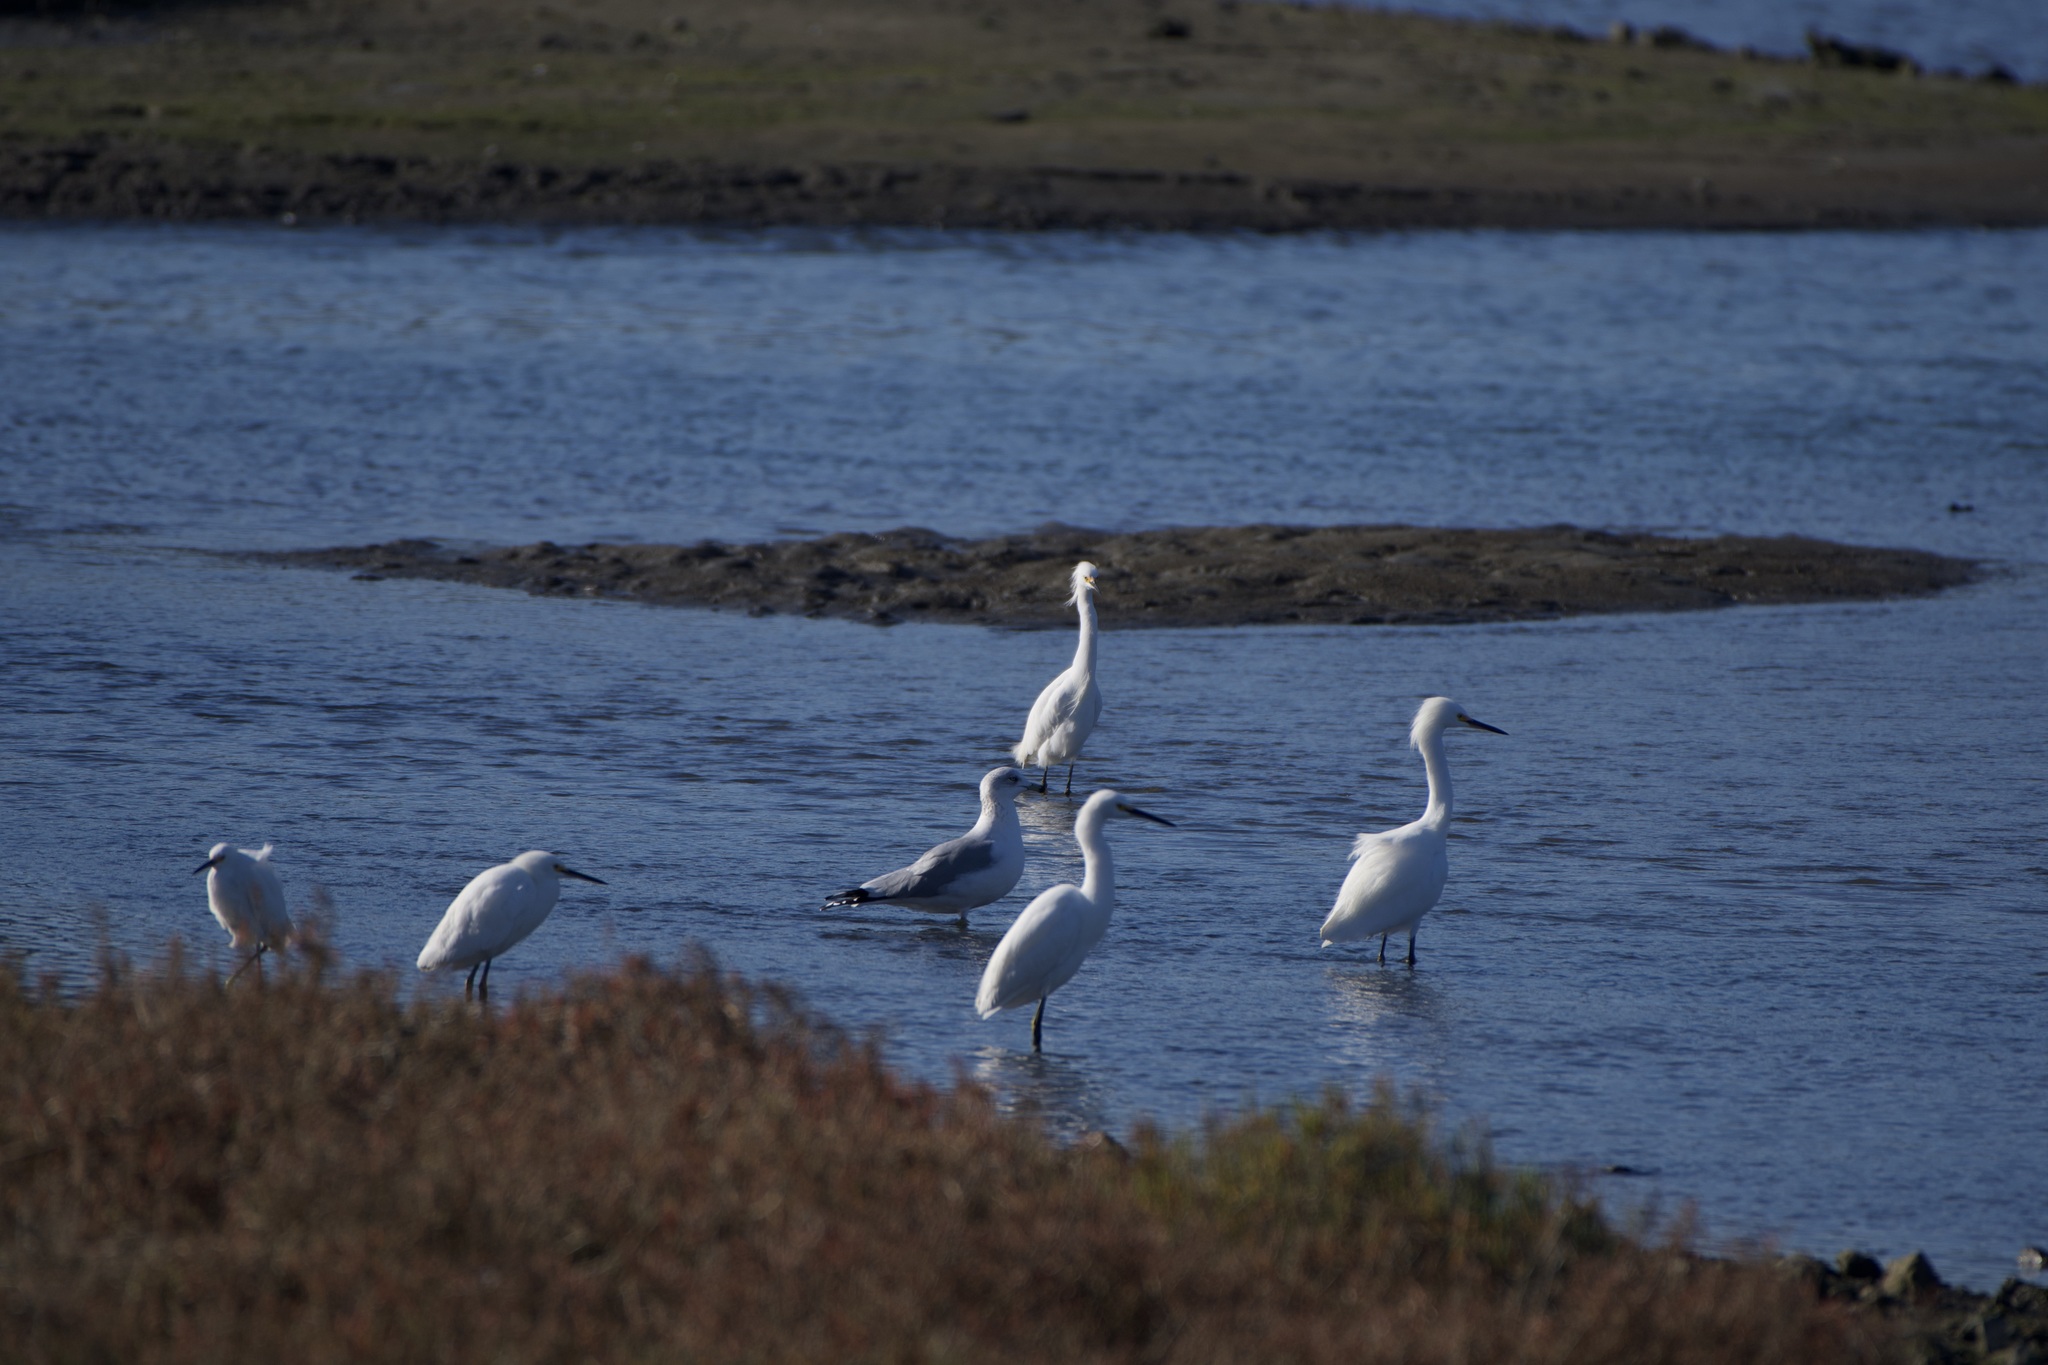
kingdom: Animalia
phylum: Chordata
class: Aves
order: Pelecaniformes
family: Ardeidae
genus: Egretta
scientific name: Egretta thula
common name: Snowy egret
